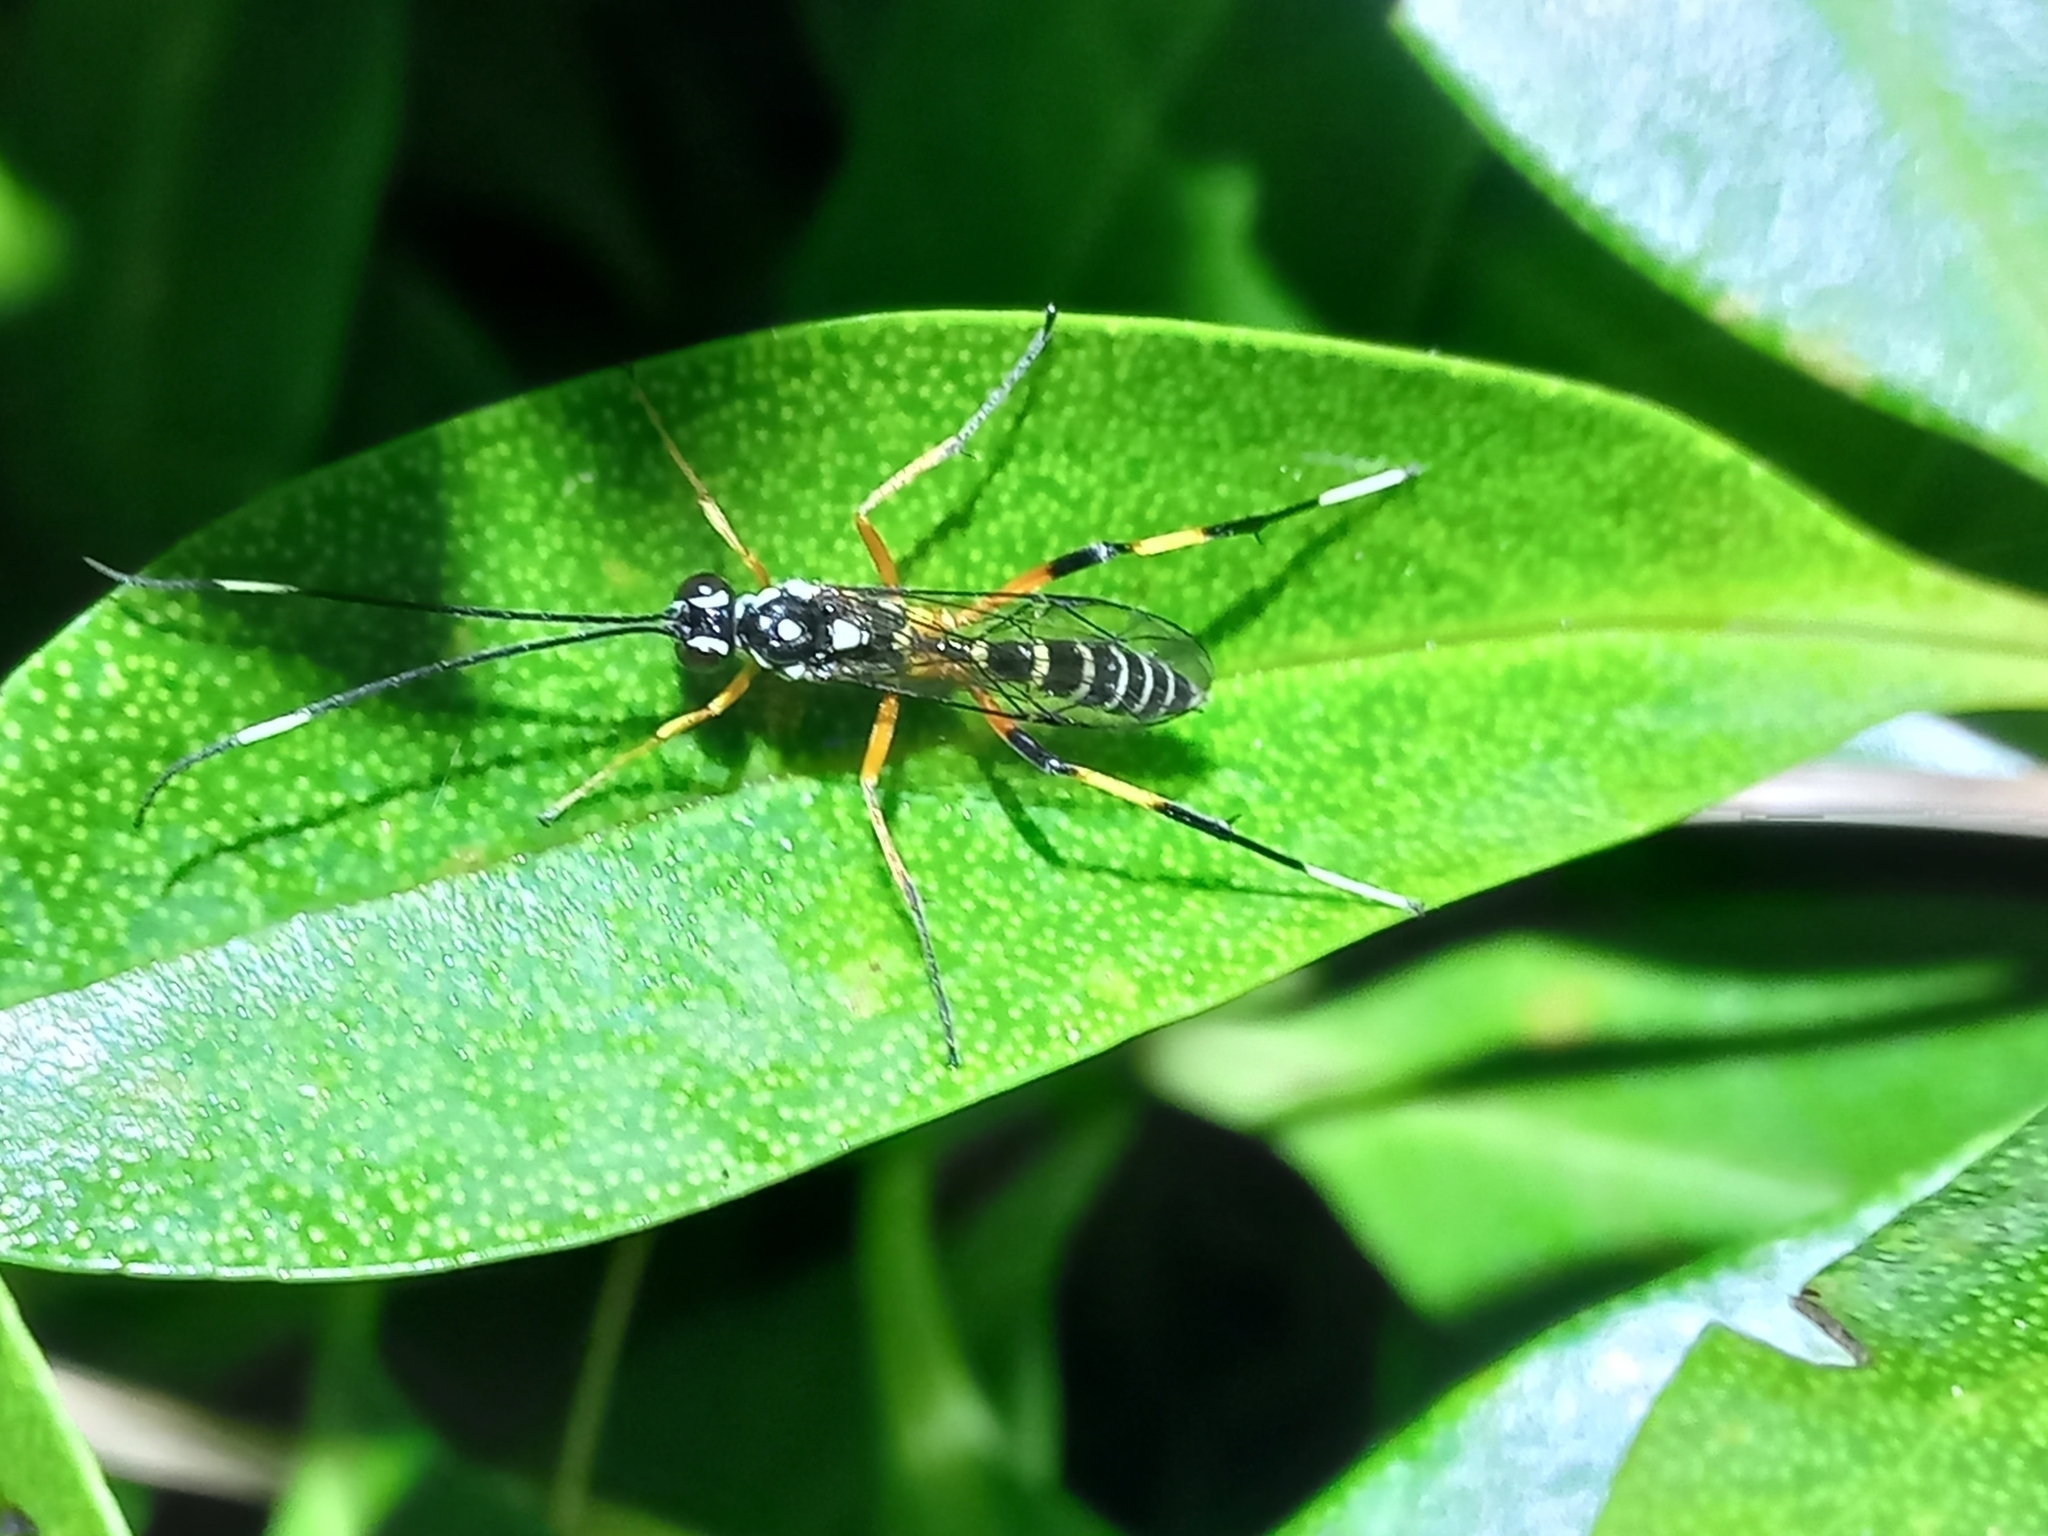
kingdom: Animalia
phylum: Arthropoda
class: Insecta
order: Hymenoptera
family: Ichneumonidae
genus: Xanthocryptus
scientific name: Xanthocryptus novozealandicus
